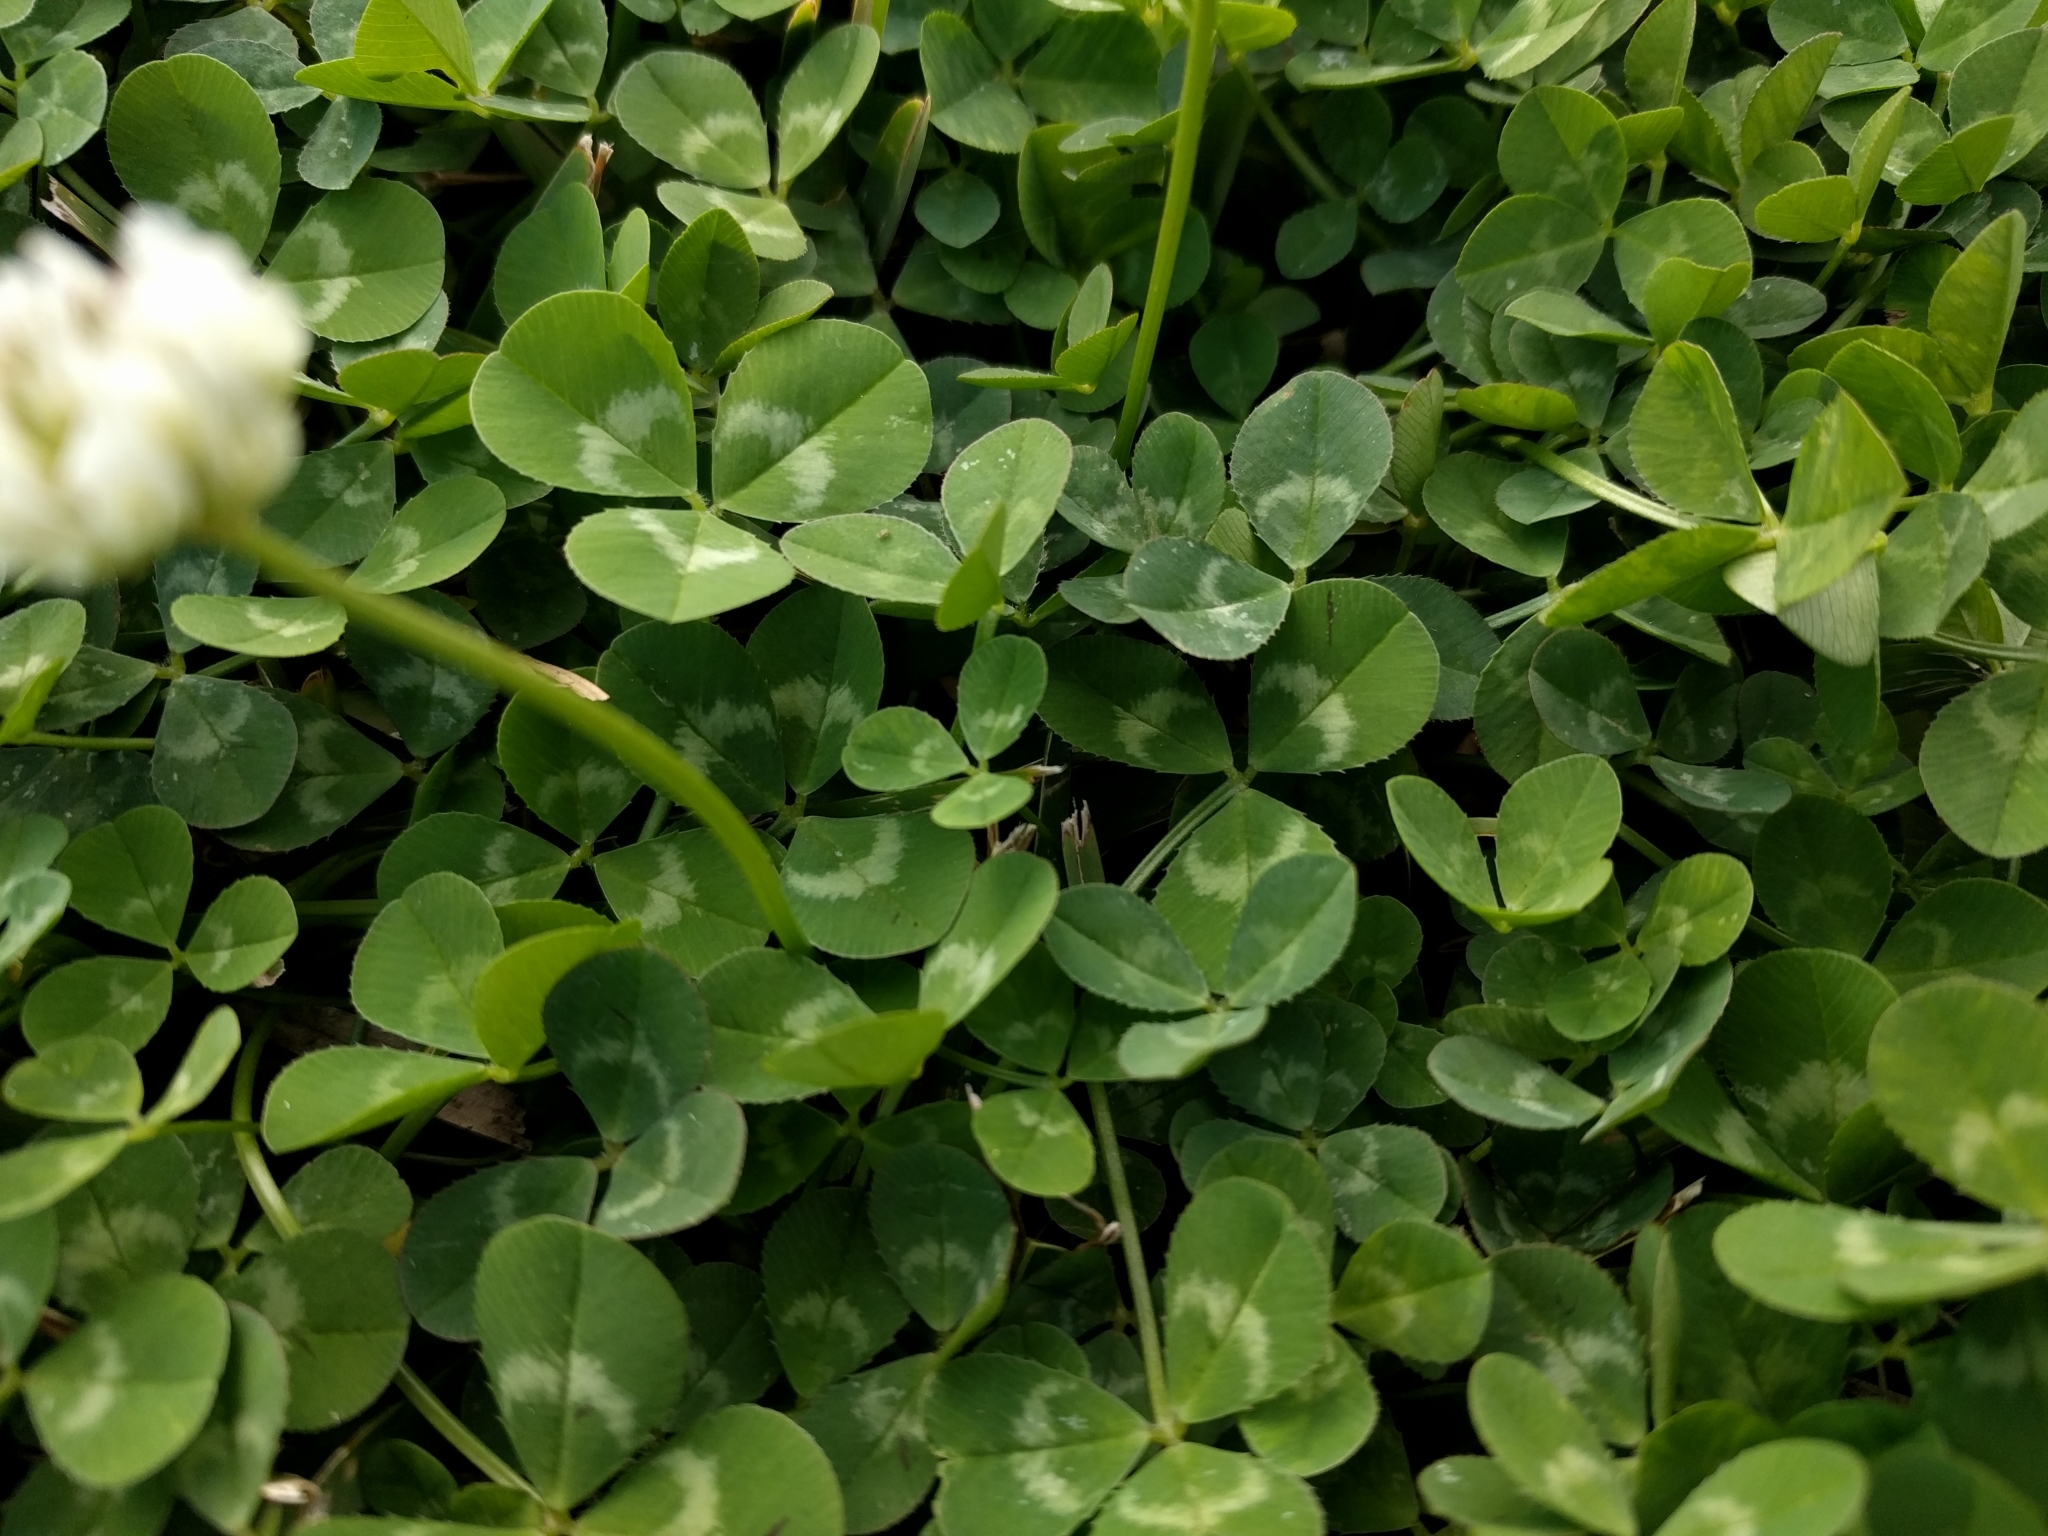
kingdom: Plantae
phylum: Tracheophyta
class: Magnoliopsida
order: Fabales
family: Fabaceae
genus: Trifolium
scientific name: Trifolium repens
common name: White clover
